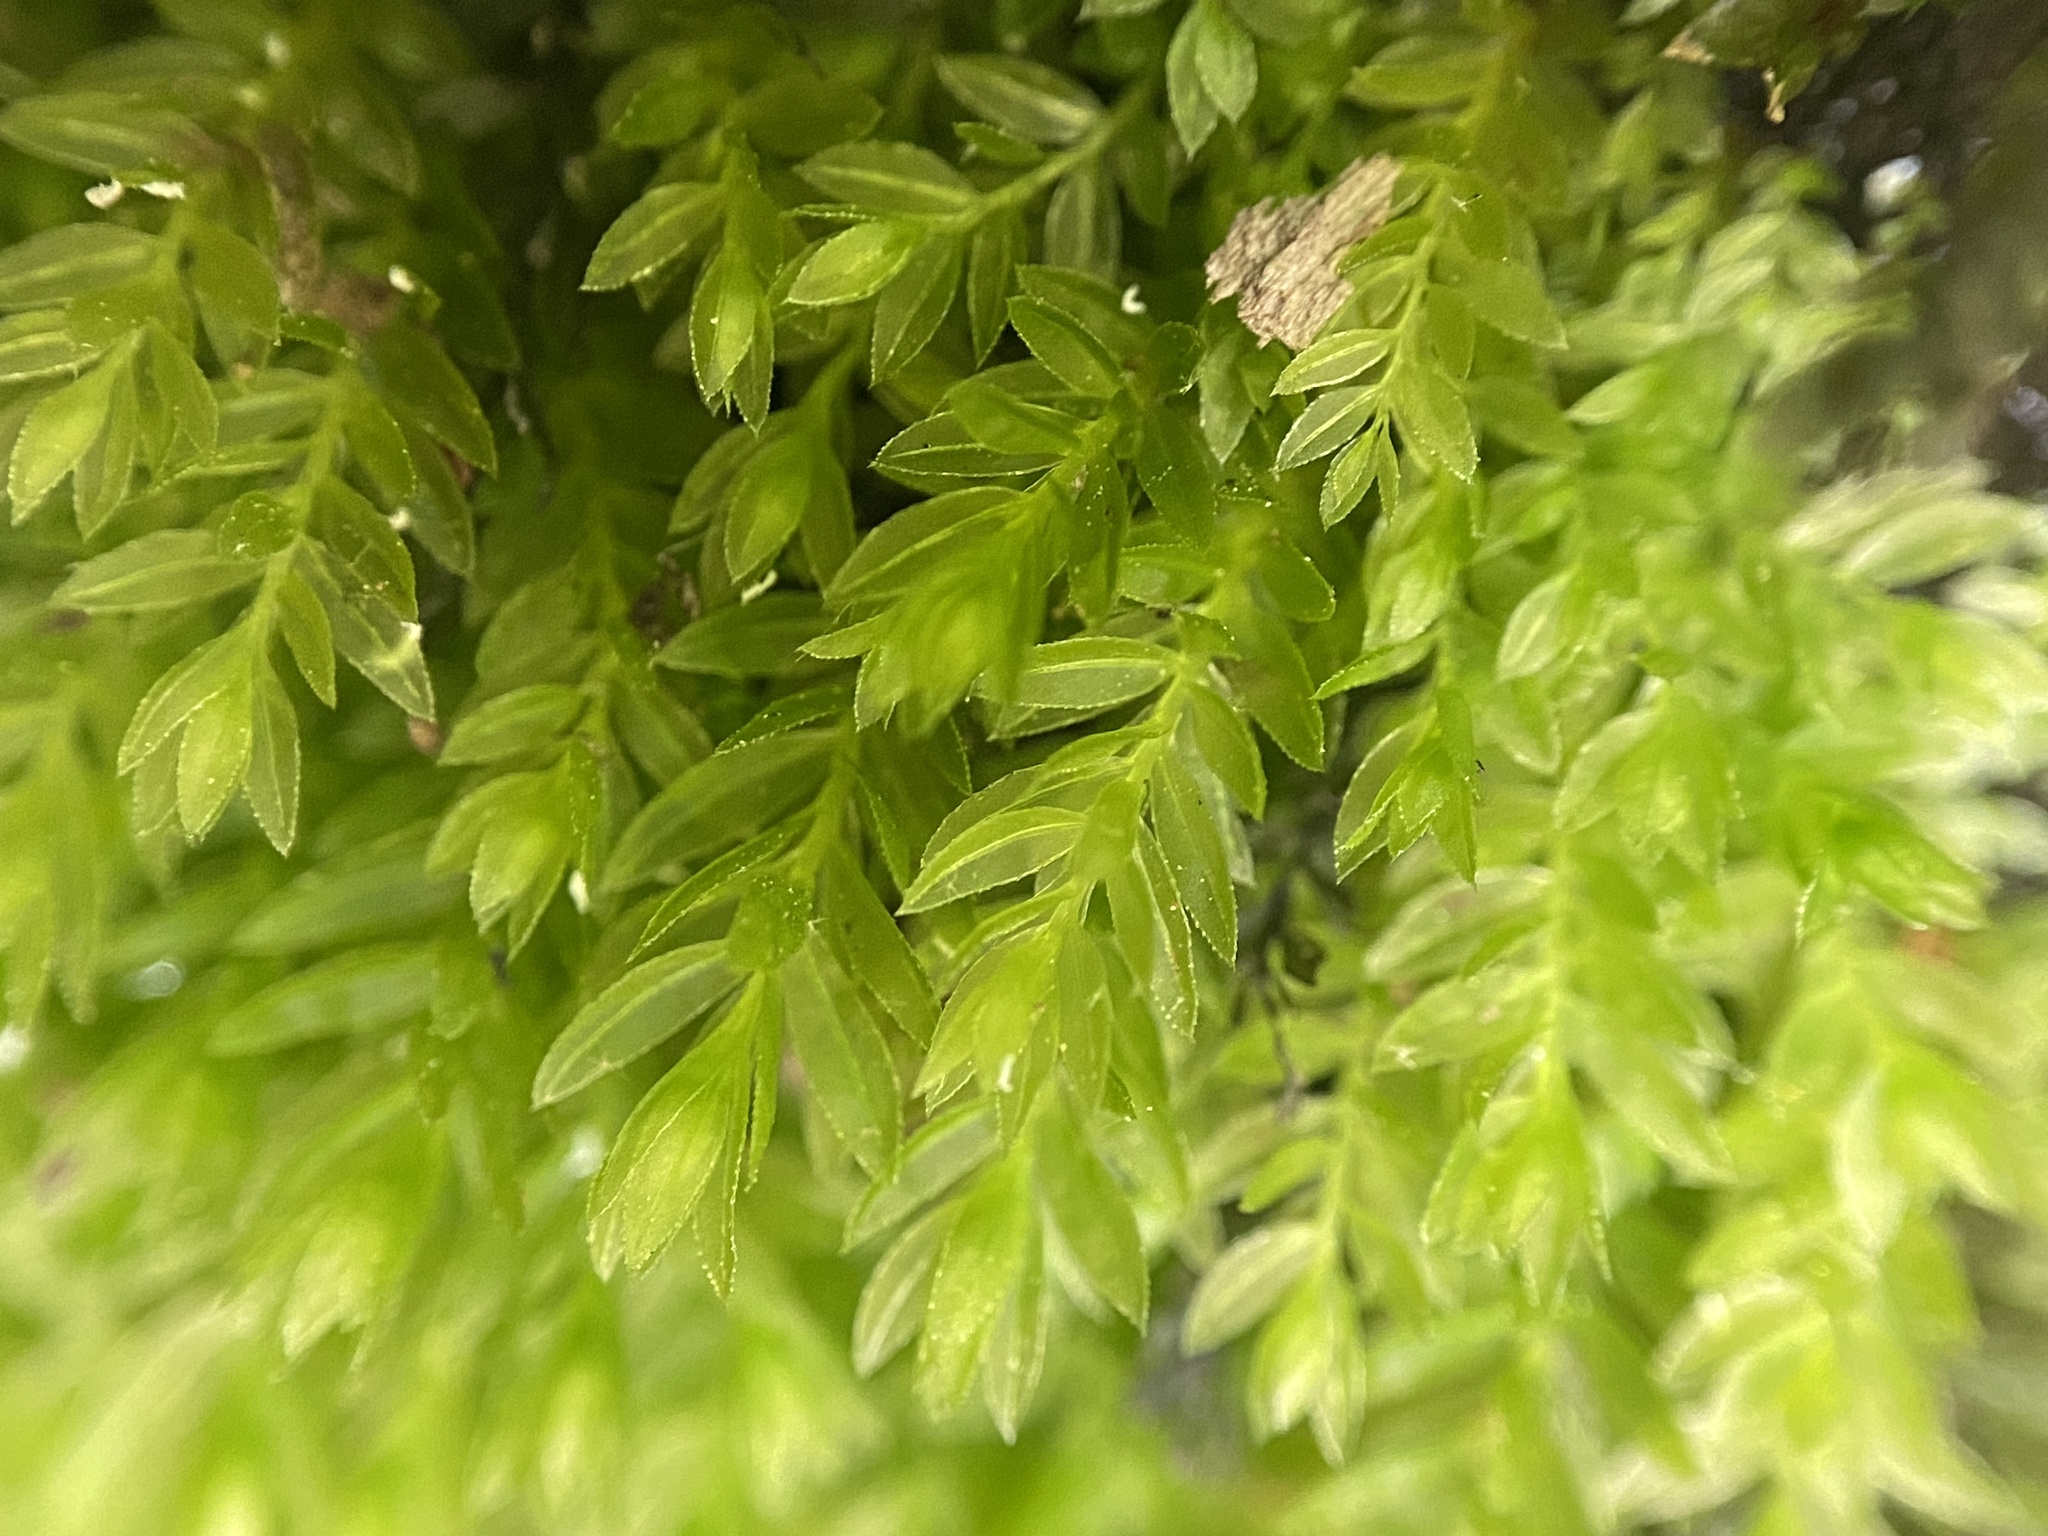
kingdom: Plantae
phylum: Bryophyta
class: Bryopsida
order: Bryales
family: Mniaceae
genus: Mnium
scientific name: Mnium hornum
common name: Swan's-neck leafy moss
